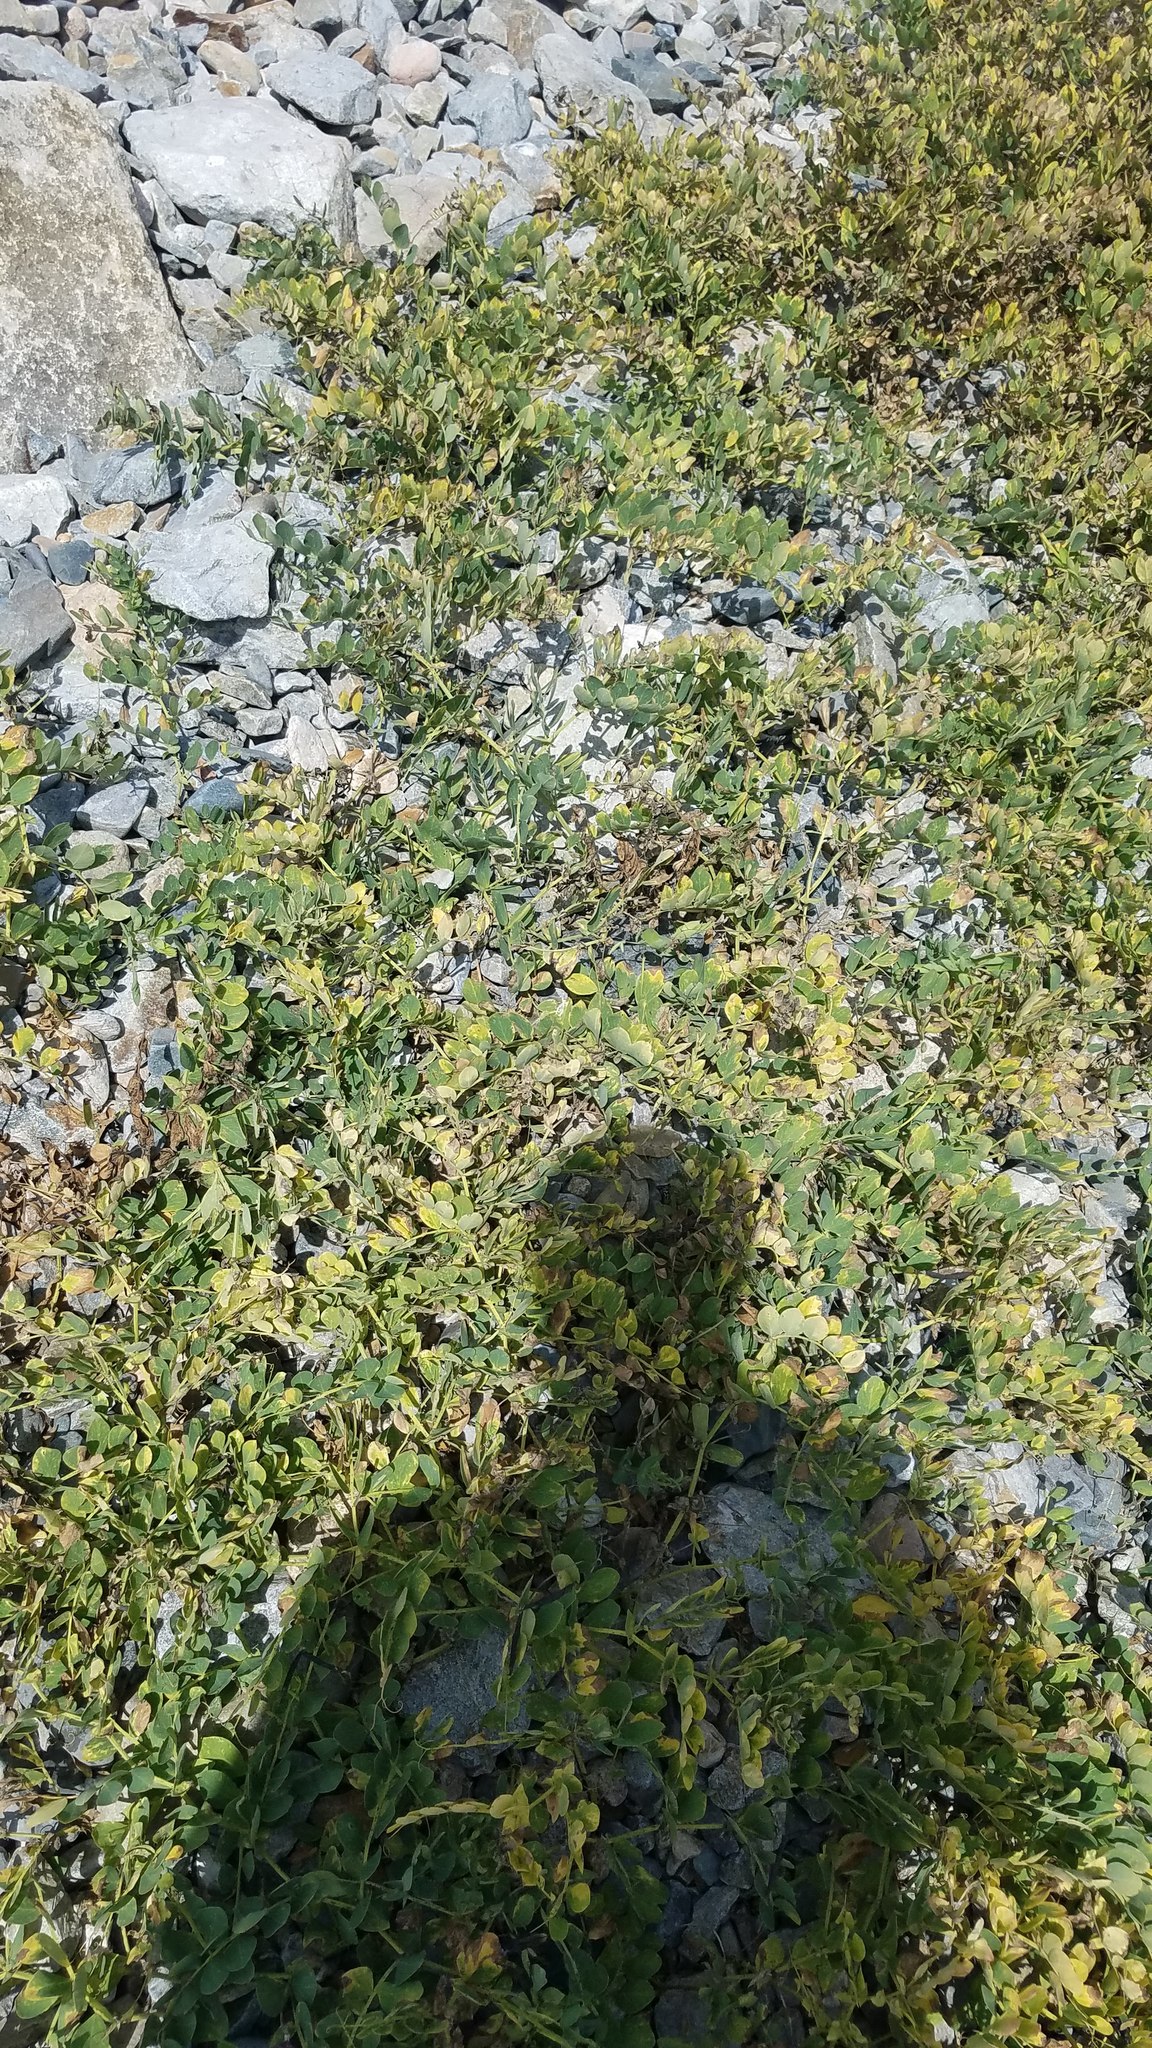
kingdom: Plantae
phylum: Tracheophyta
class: Magnoliopsida
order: Fabales
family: Fabaceae
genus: Lathyrus
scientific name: Lathyrus japonicus
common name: Sea pea
